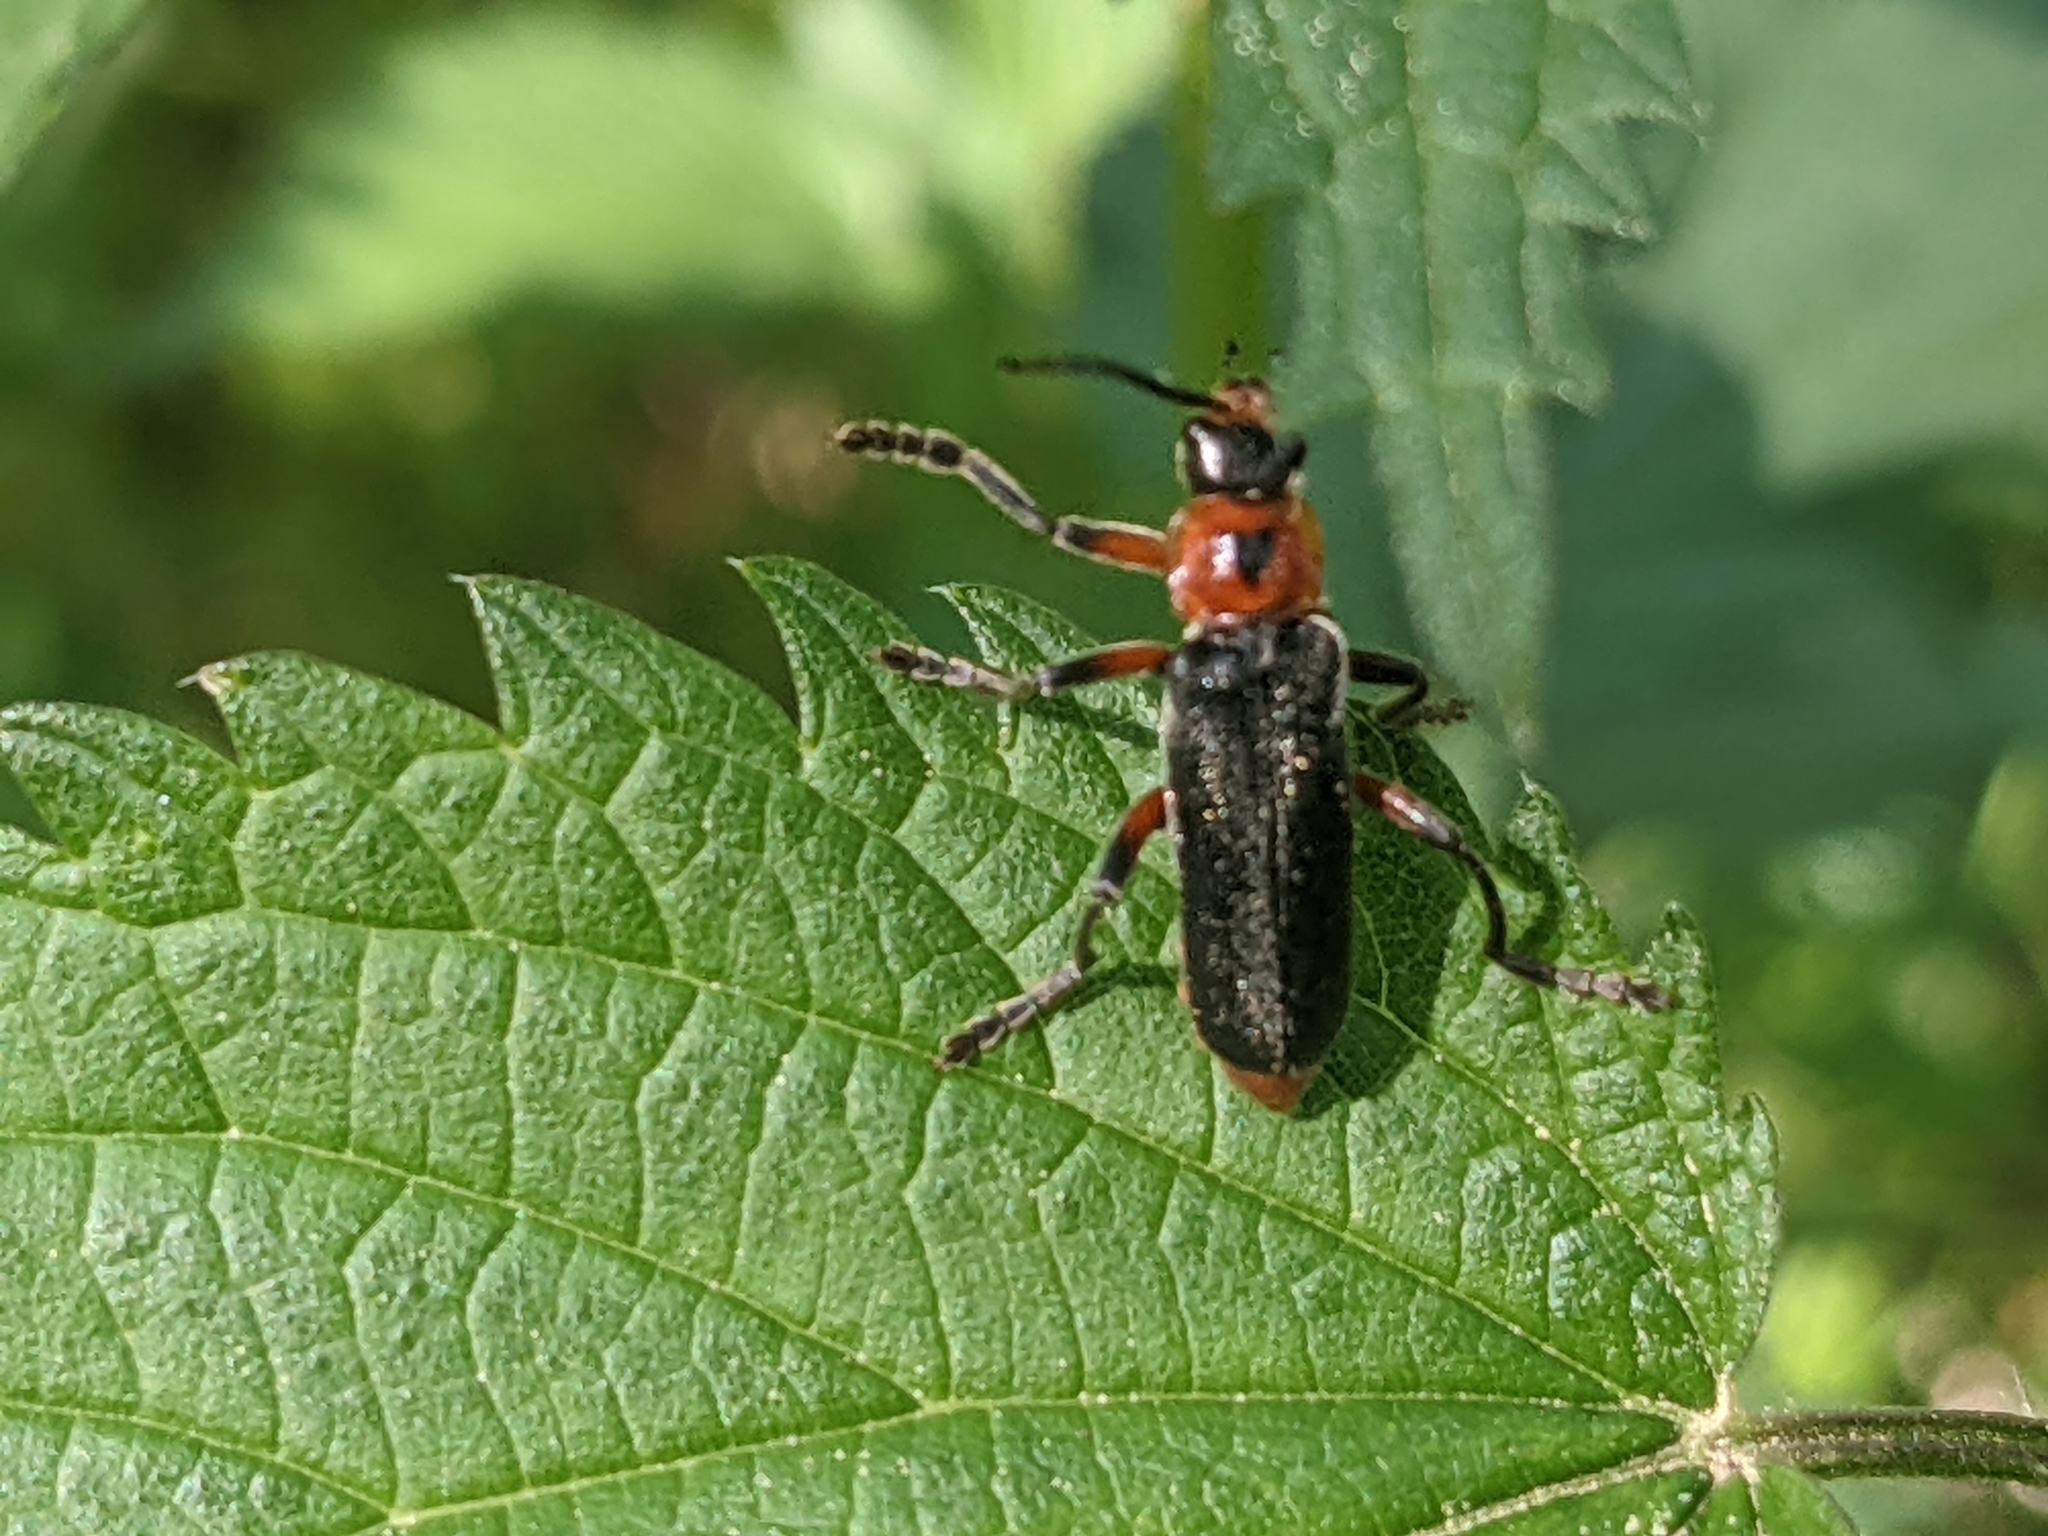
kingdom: Animalia
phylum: Arthropoda
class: Insecta
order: Coleoptera
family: Cantharidae
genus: Cantharis
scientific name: Cantharis rustica
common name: Soldier beetle
